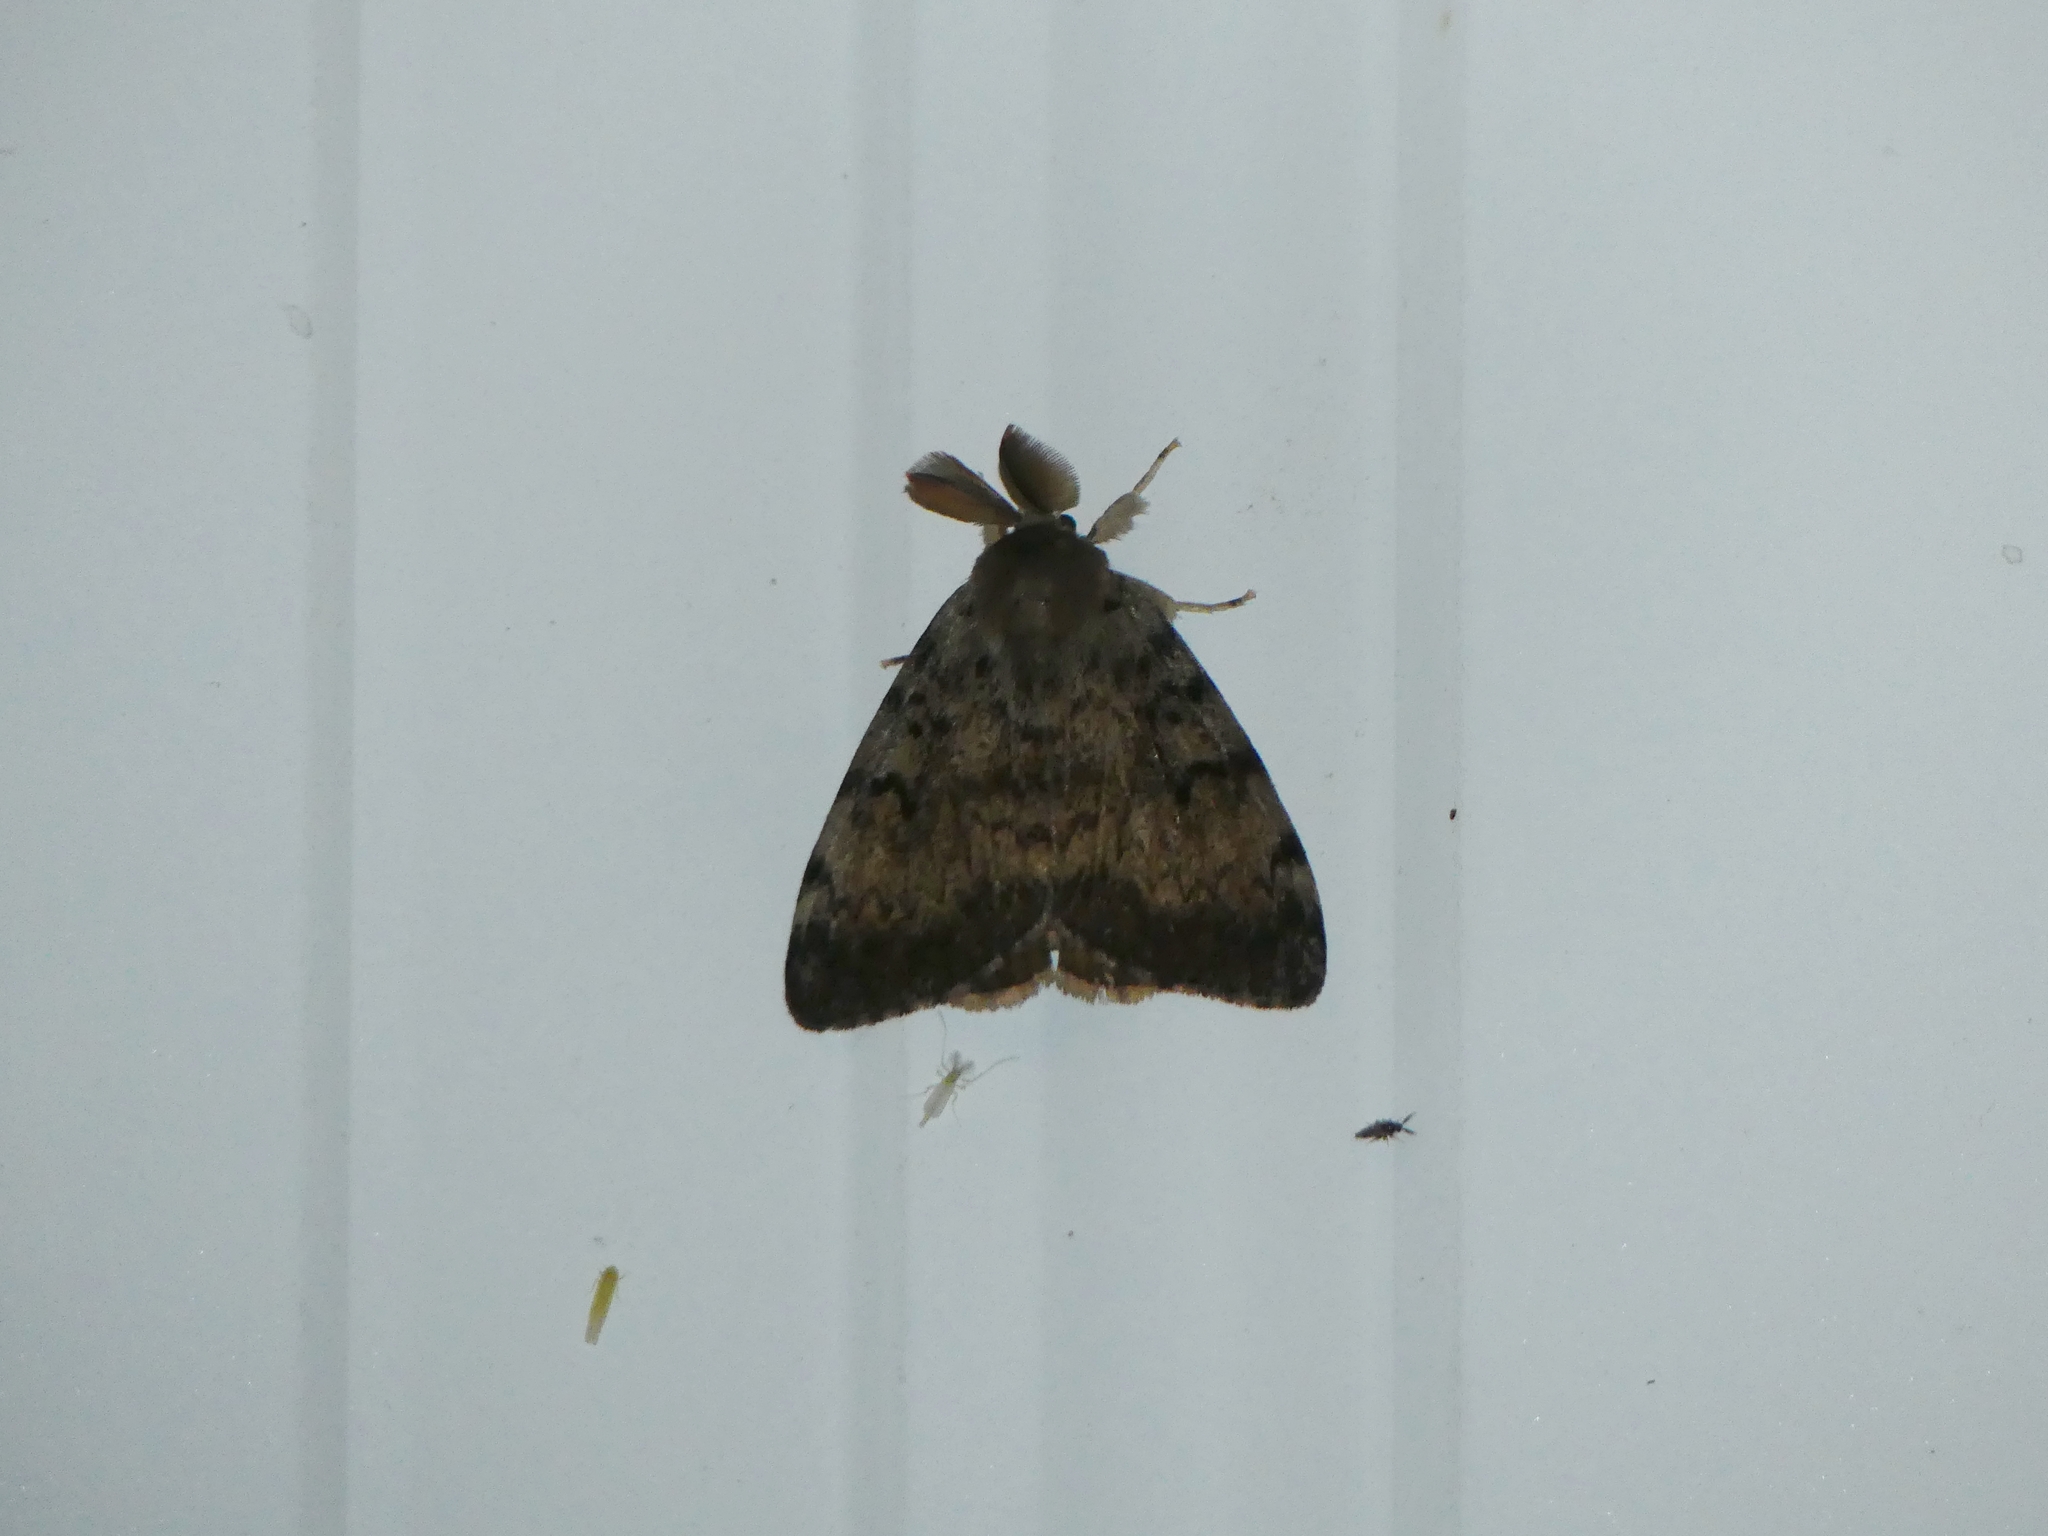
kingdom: Animalia
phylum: Arthropoda
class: Insecta
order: Lepidoptera
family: Erebidae
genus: Lymantria
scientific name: Lymantria dispar
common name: Gypsy moth
